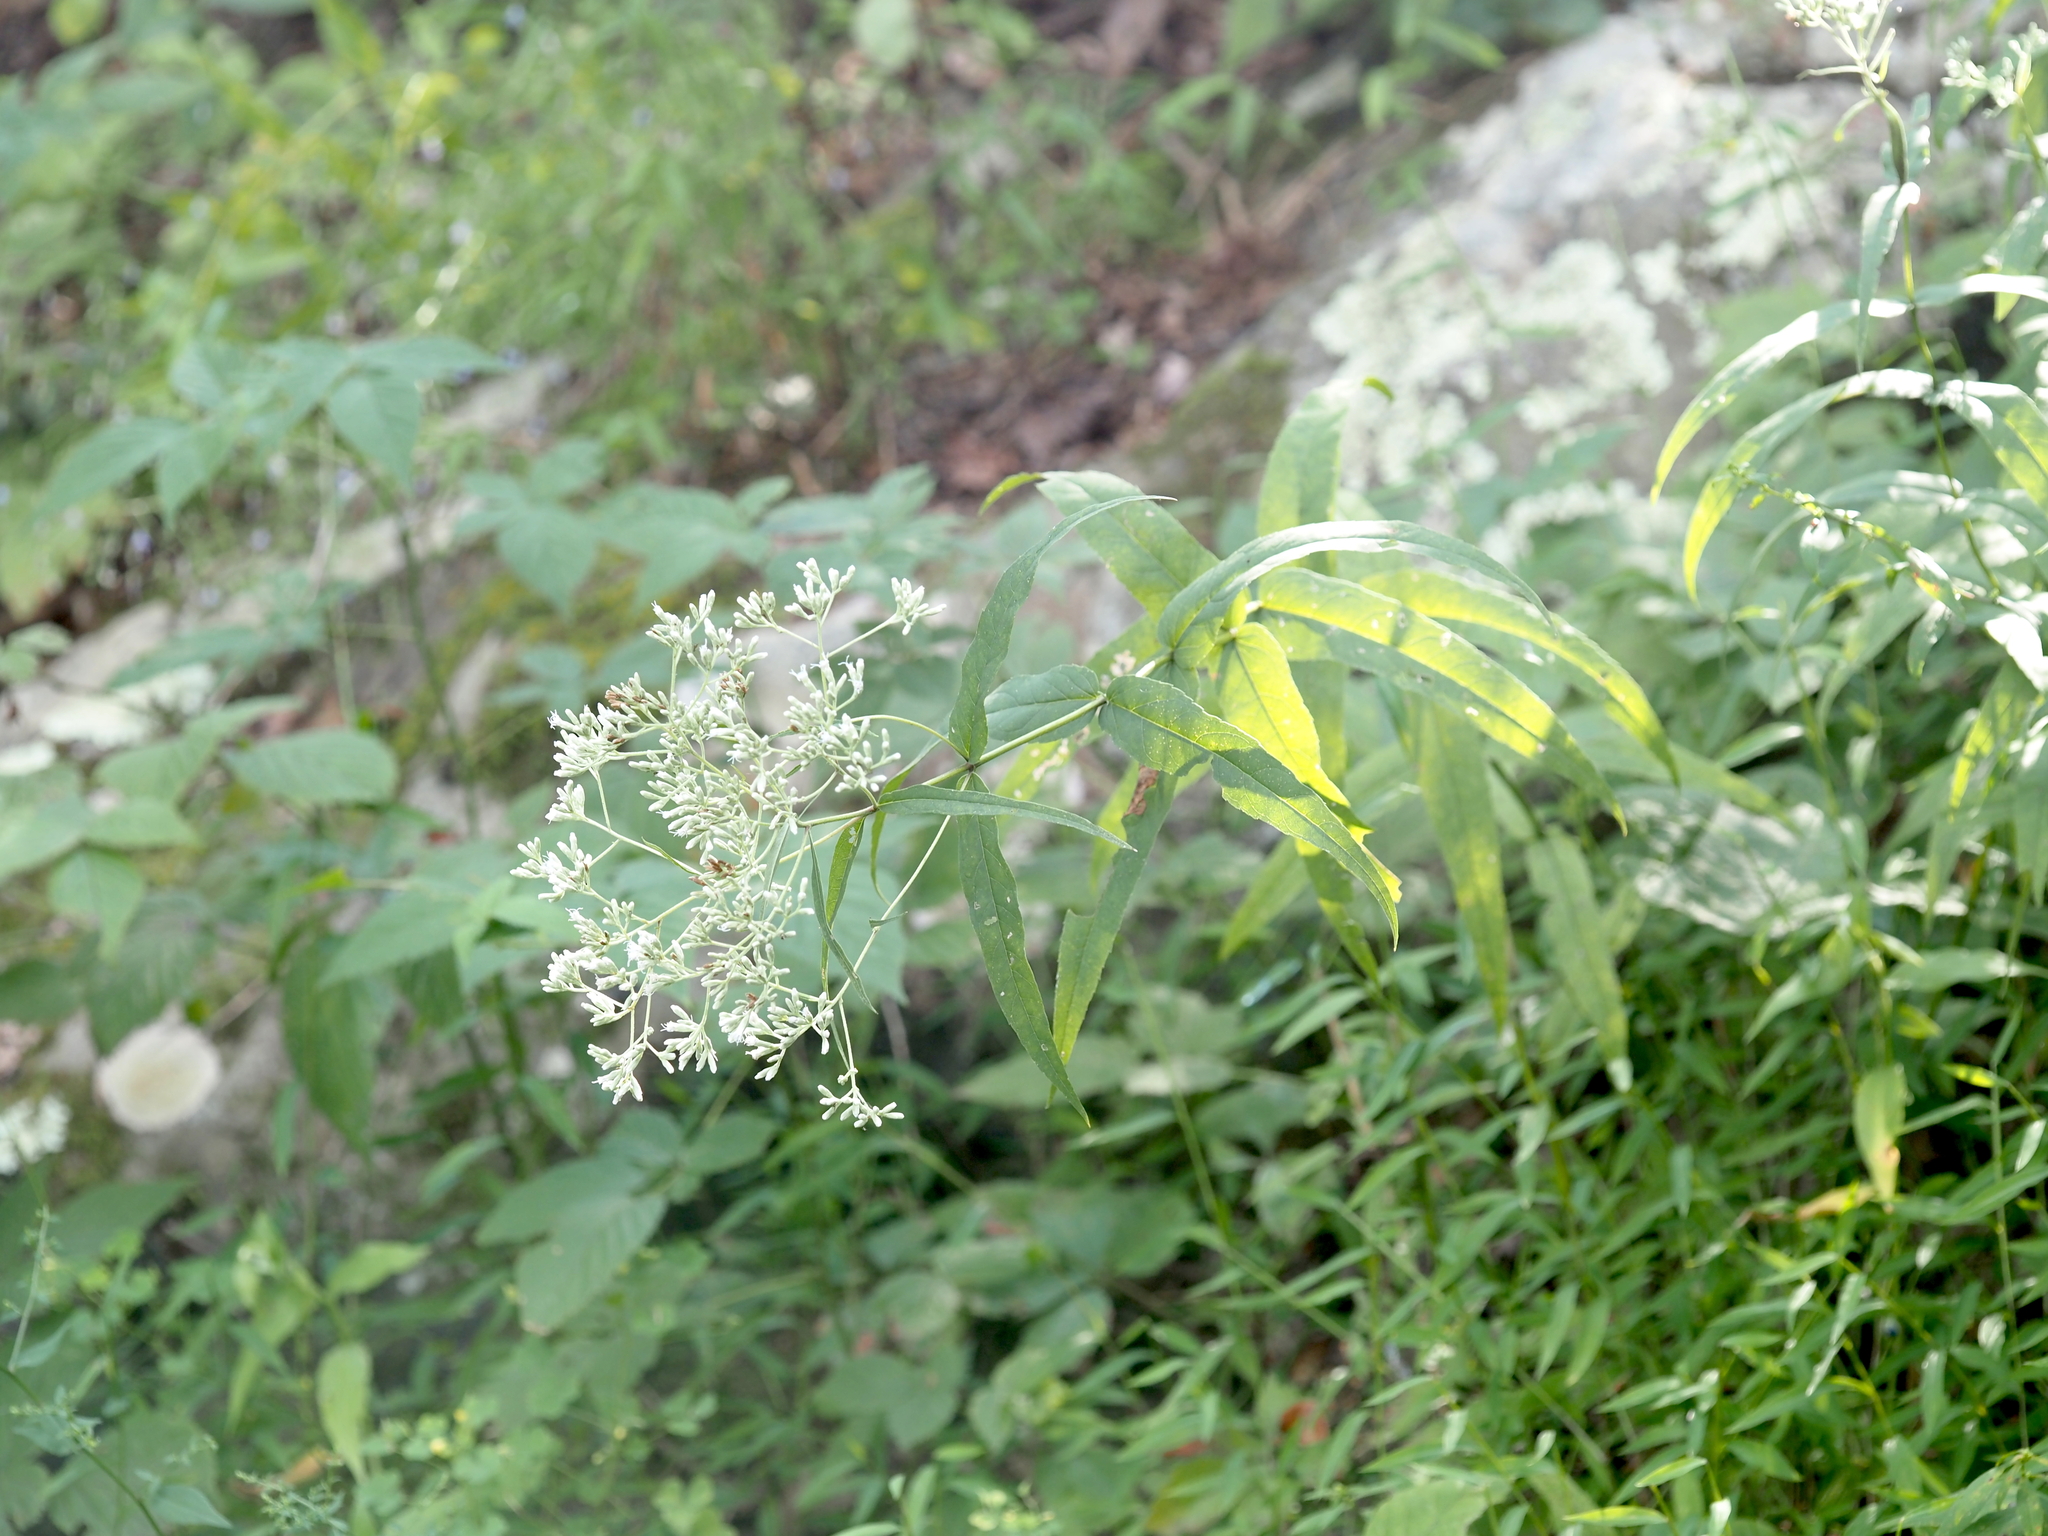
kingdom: Plantae
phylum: Tracheophyta
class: Magnoliopsida
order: Asterales
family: Asteraceae
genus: Eupatorium
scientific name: Eupatorium sessilifolium
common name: Upland boneset
